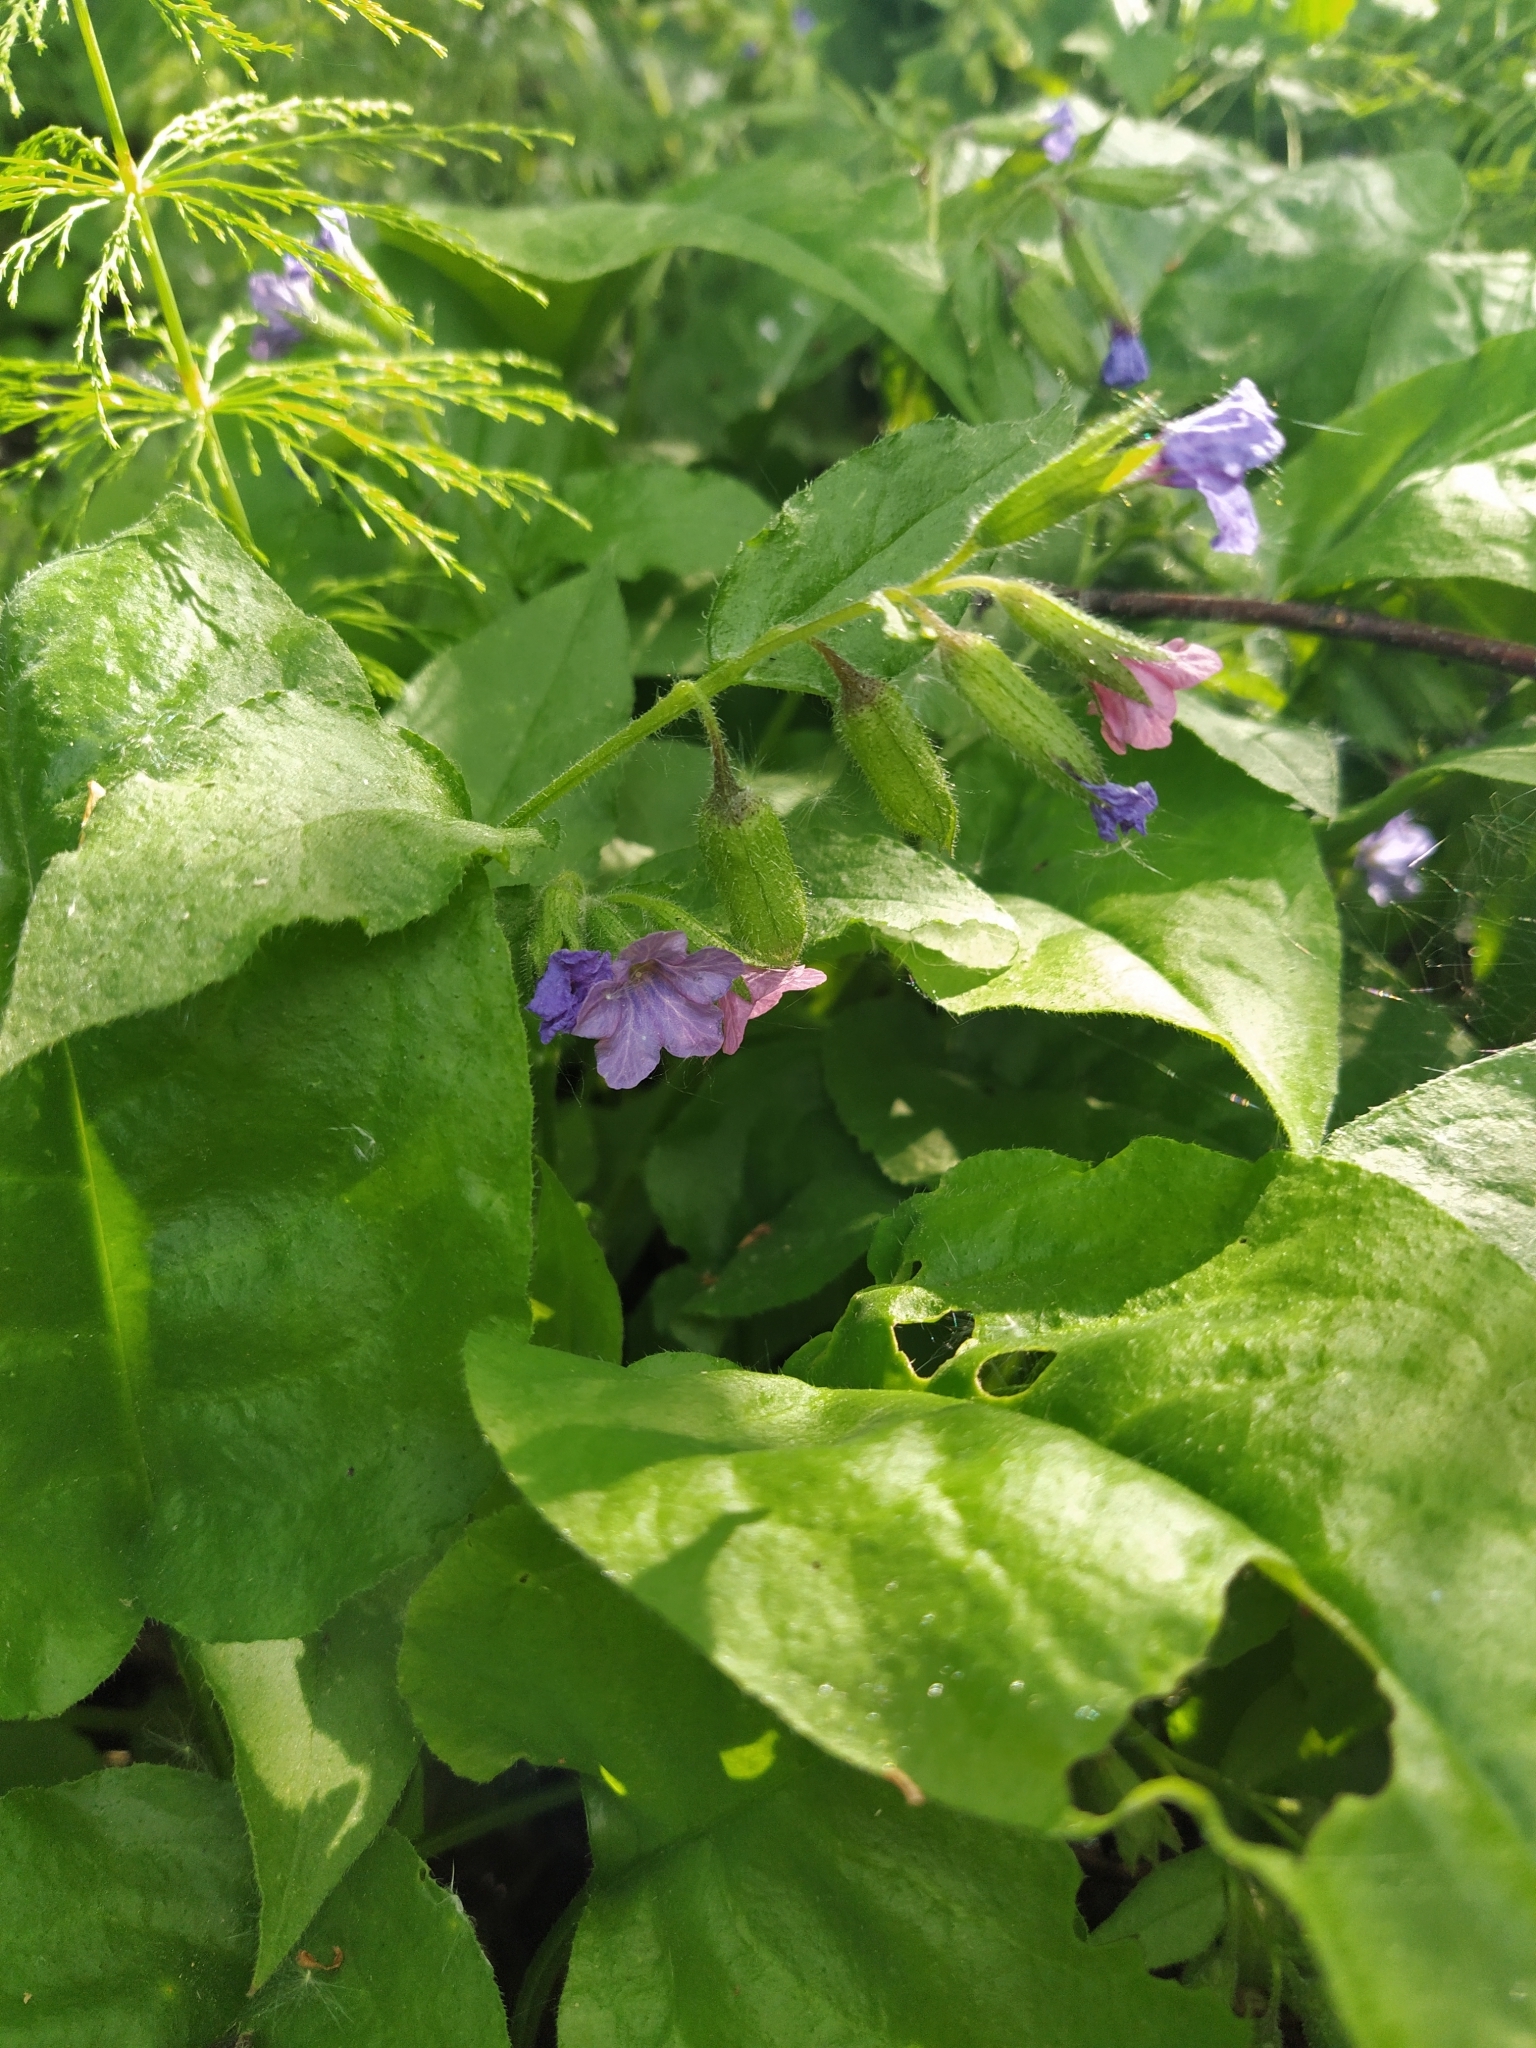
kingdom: Plantae
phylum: Tracheophyta
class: Magnoliopsida
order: Boraginales
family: Boraginaceae
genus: Pulmonaria
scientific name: Pulmonaria obscura
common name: Suffolk lungwort
